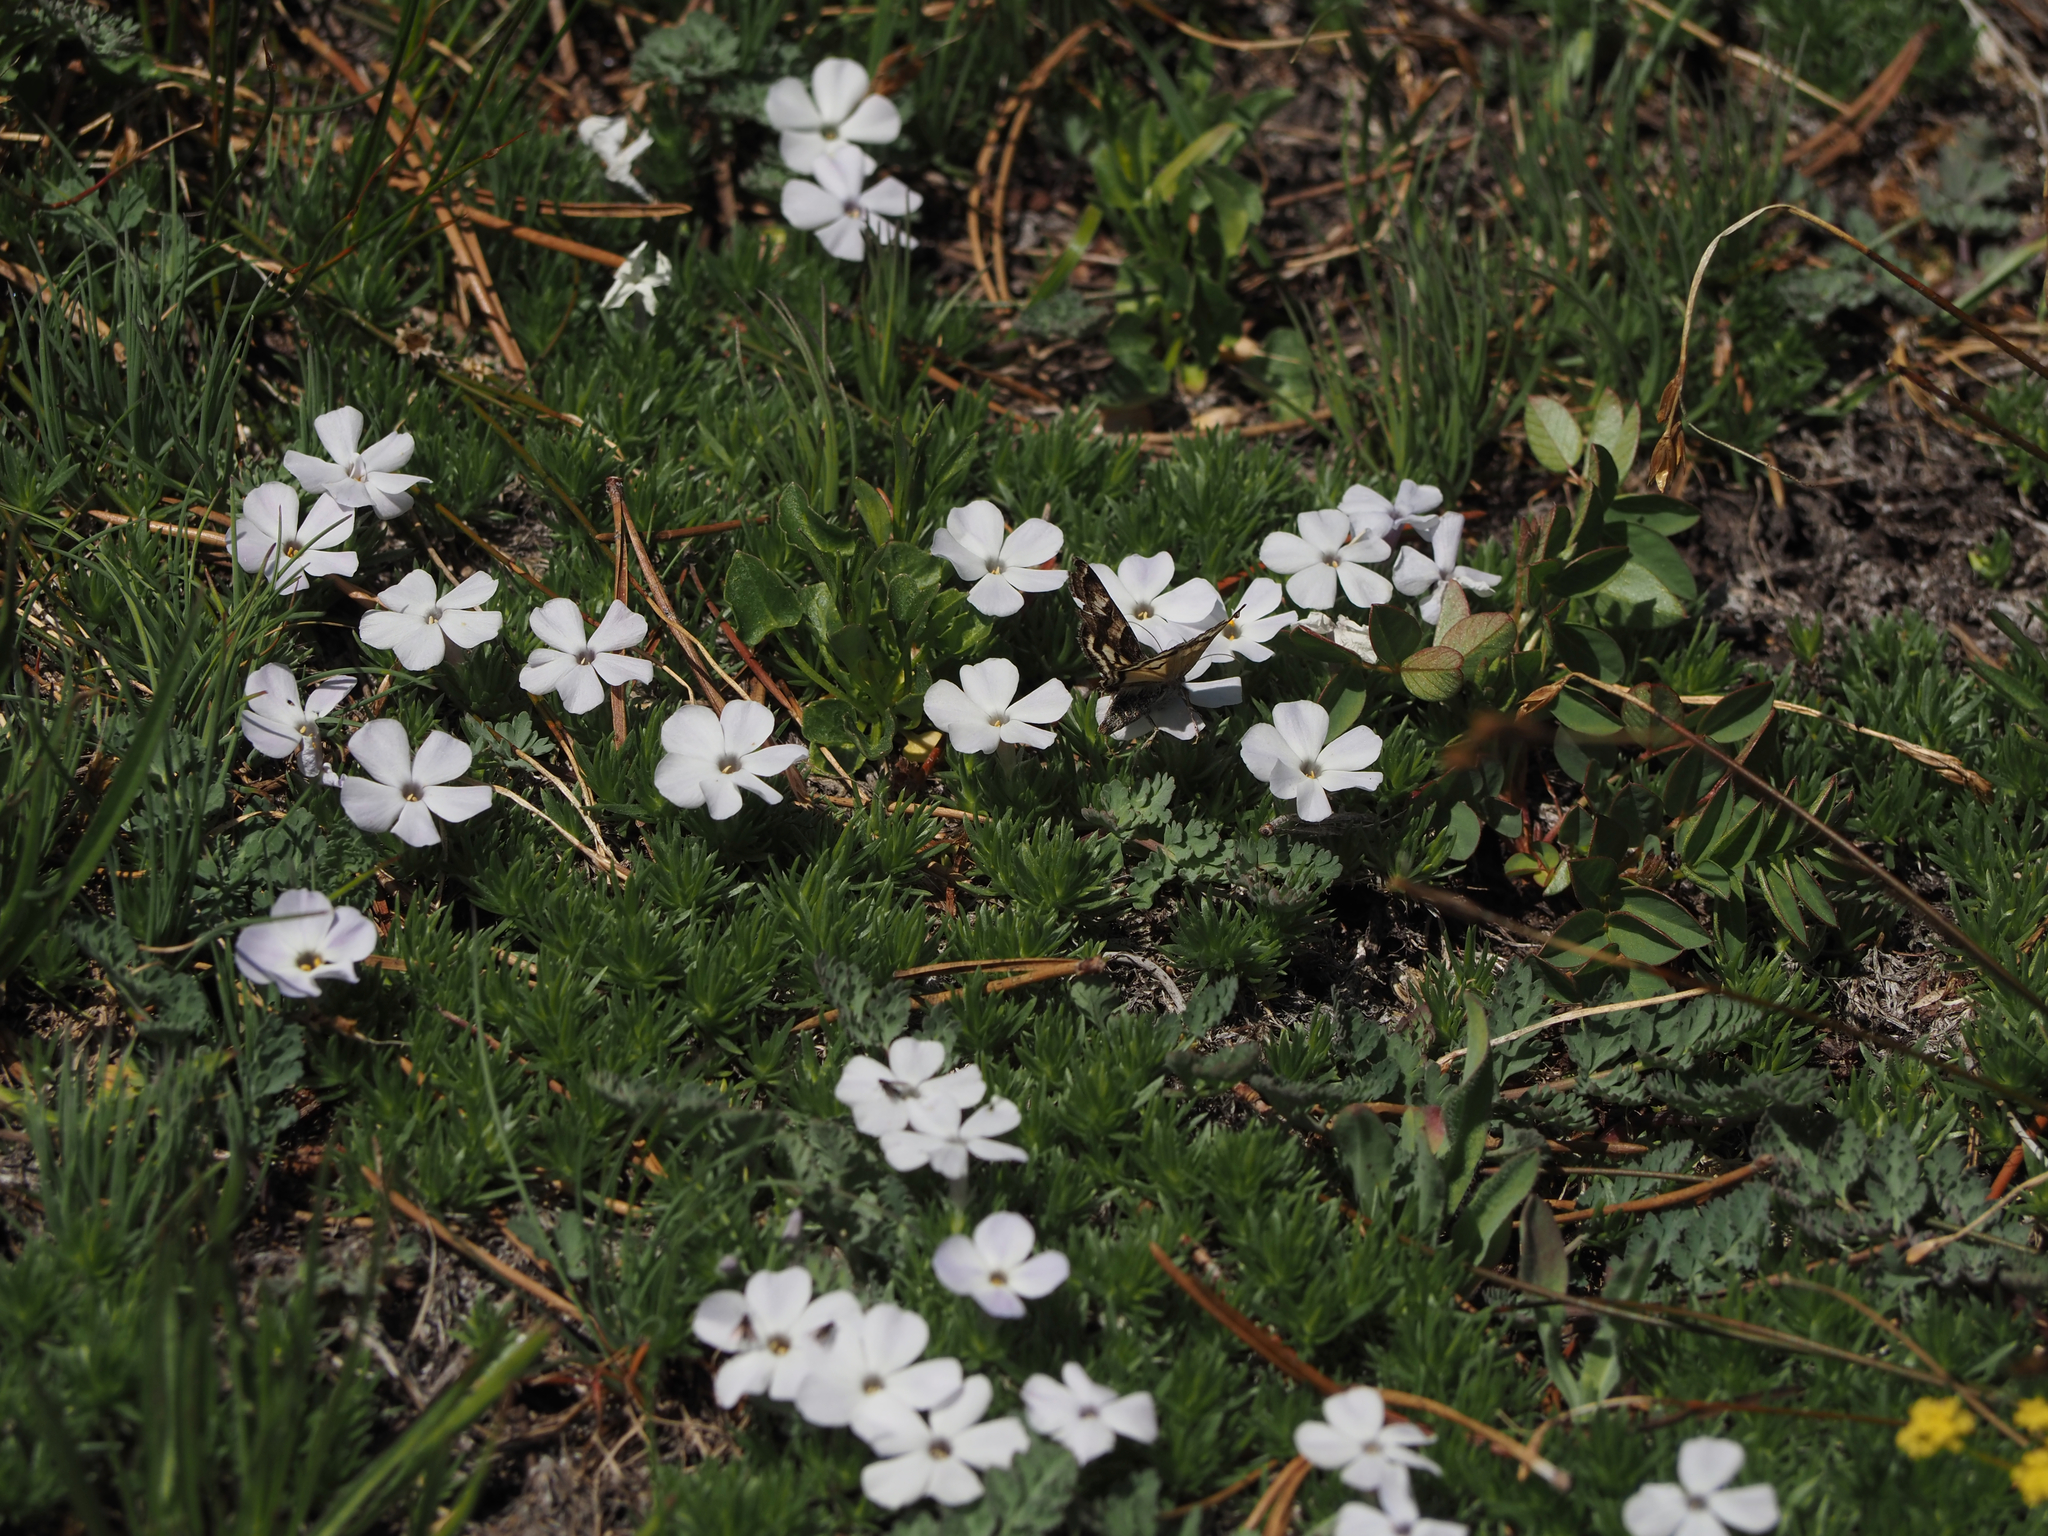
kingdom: Plantae
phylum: Tracheophyta
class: Magnoliopsida
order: Ericales
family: Polemoniaceae
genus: Phlox
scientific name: Phlox diffusa
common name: Mat phlox
